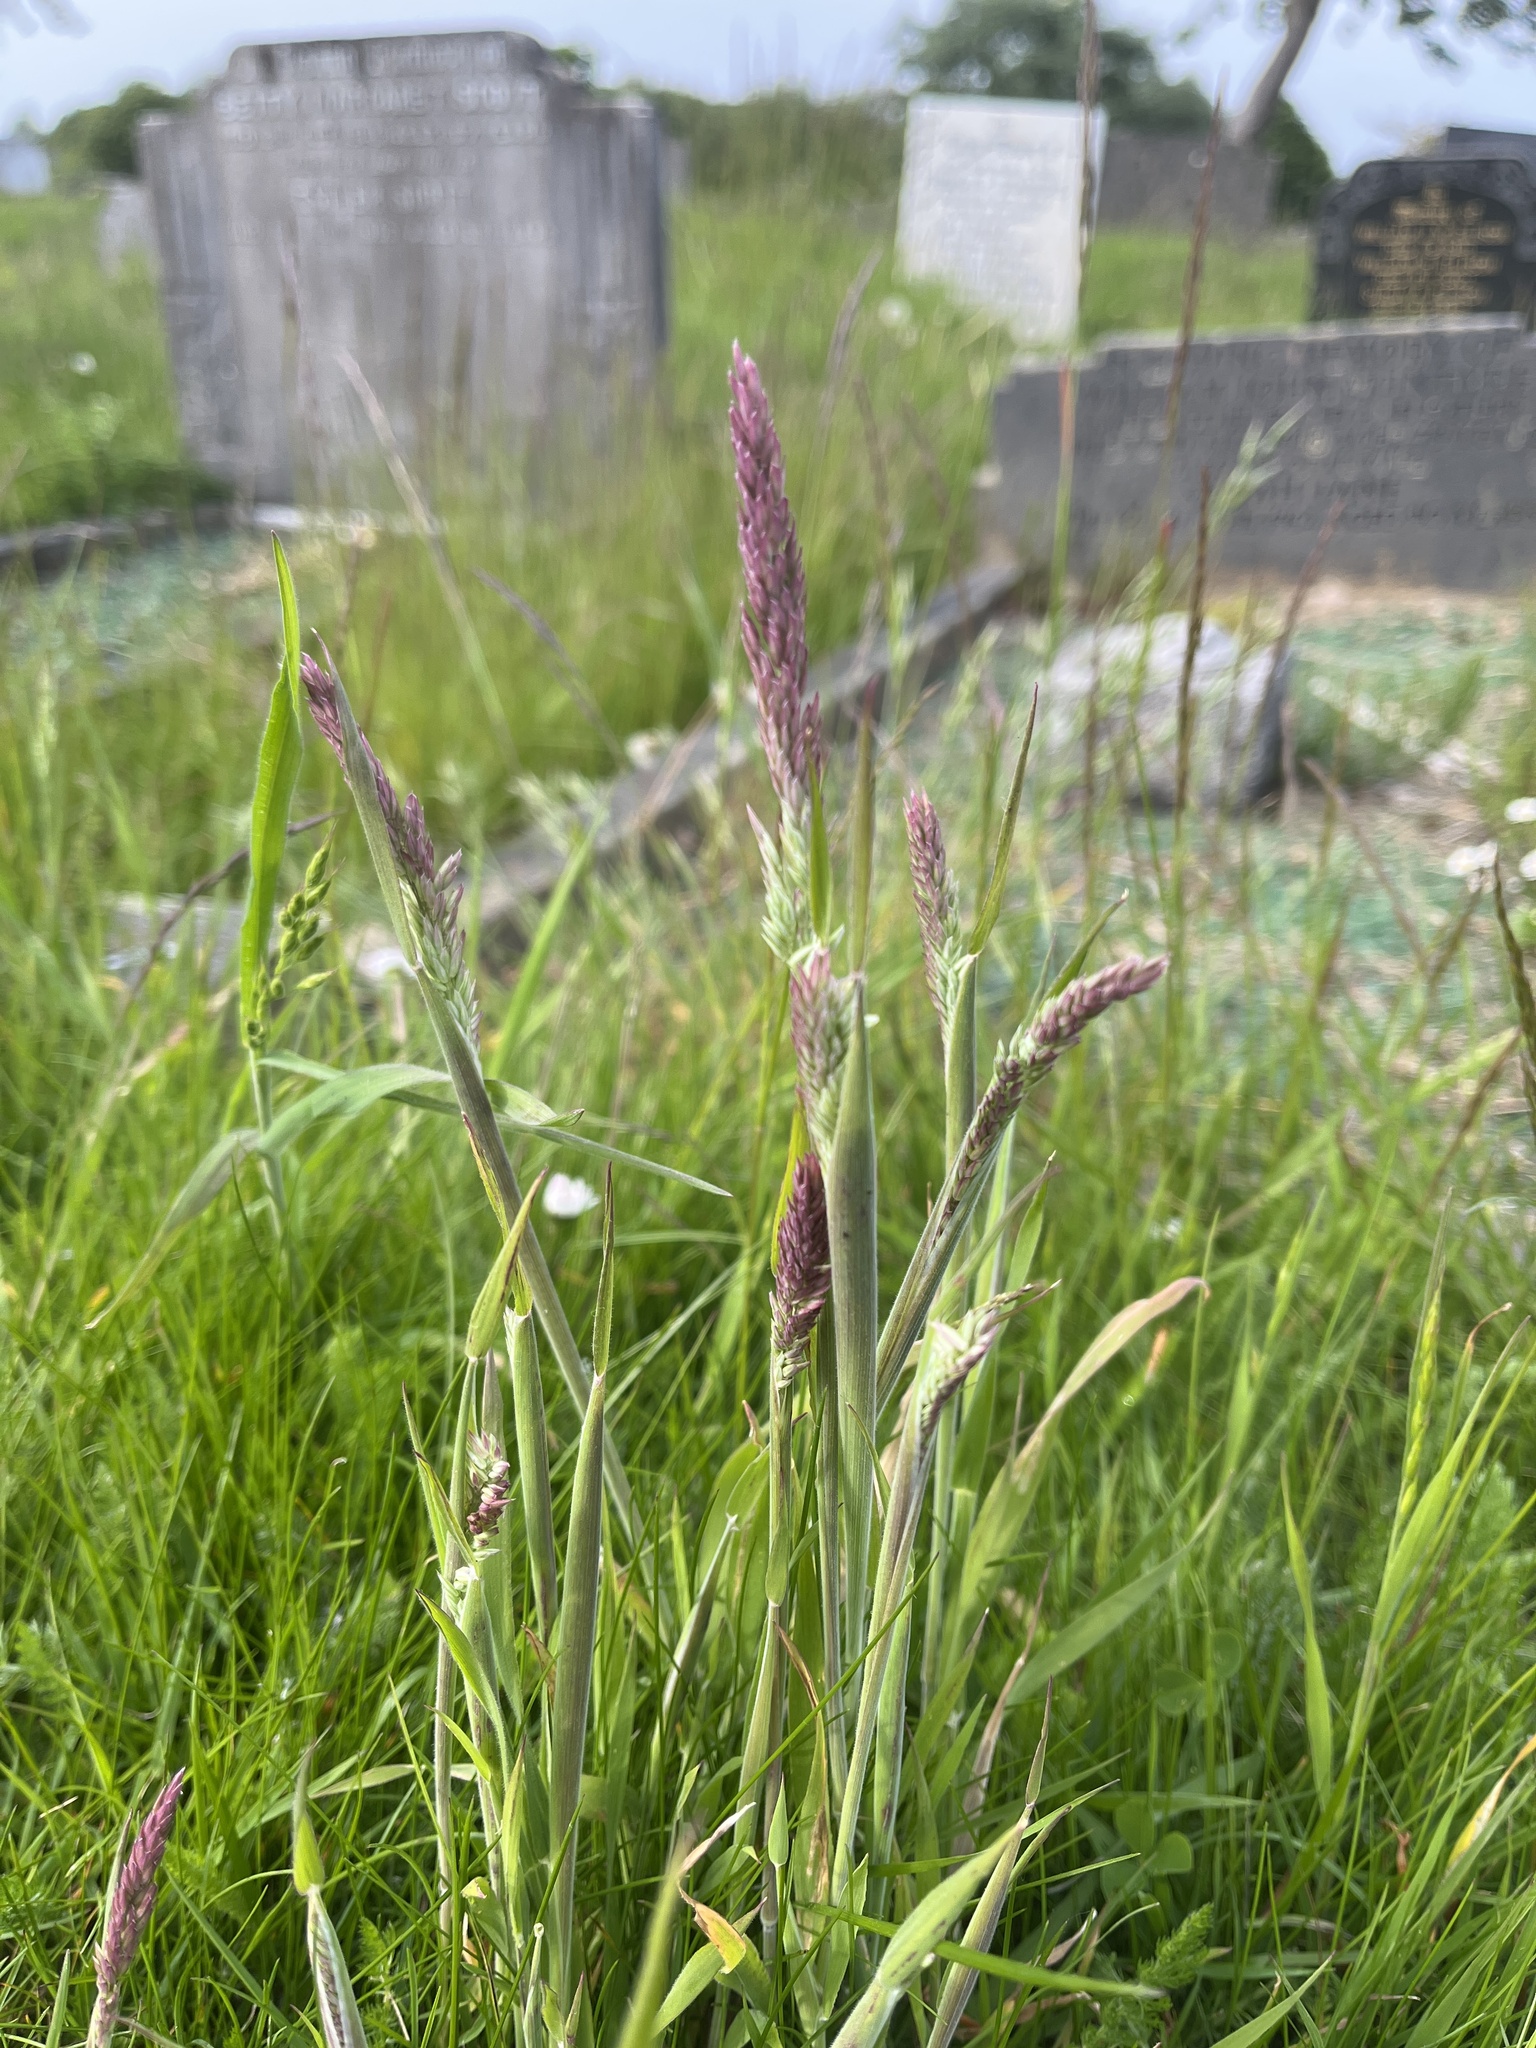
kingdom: Plantae
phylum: Tracheophyta
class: Liliopsida
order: Poales
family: Poaceae
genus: Holcus
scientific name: Holcus lanatus
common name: Yorkshire-fog
